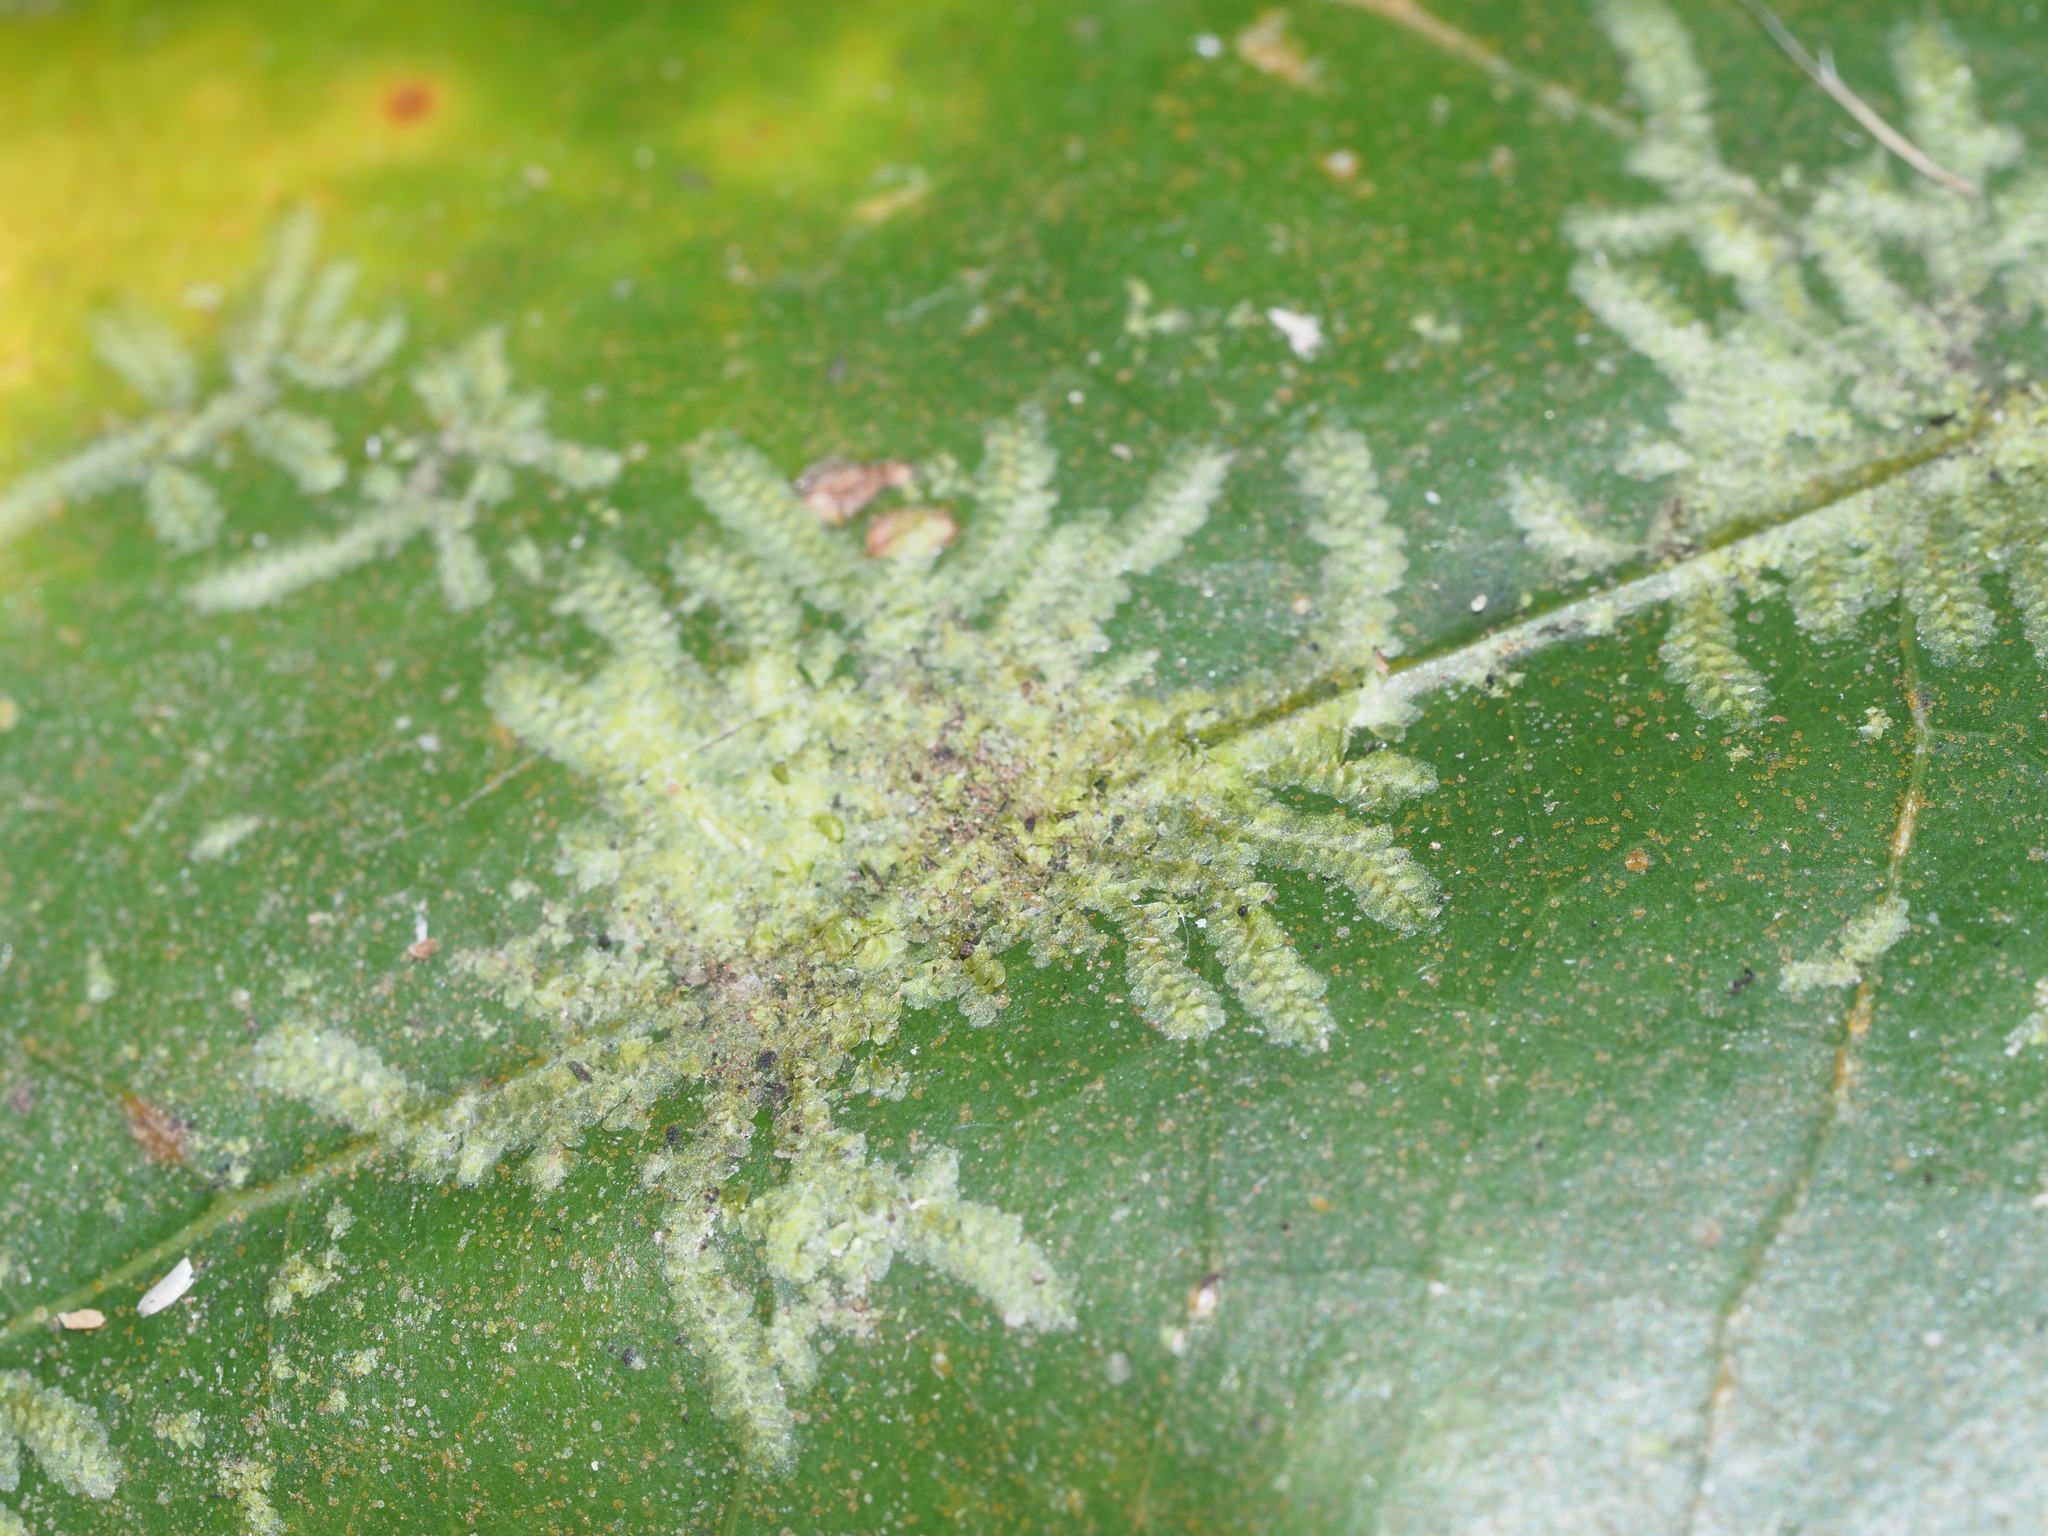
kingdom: Plantae
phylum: Marchantiophyta
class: Jungermanniopsida
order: Porellales
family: Lejeuneaceae
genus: Cololejeunea
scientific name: Cololejeunea planissima
